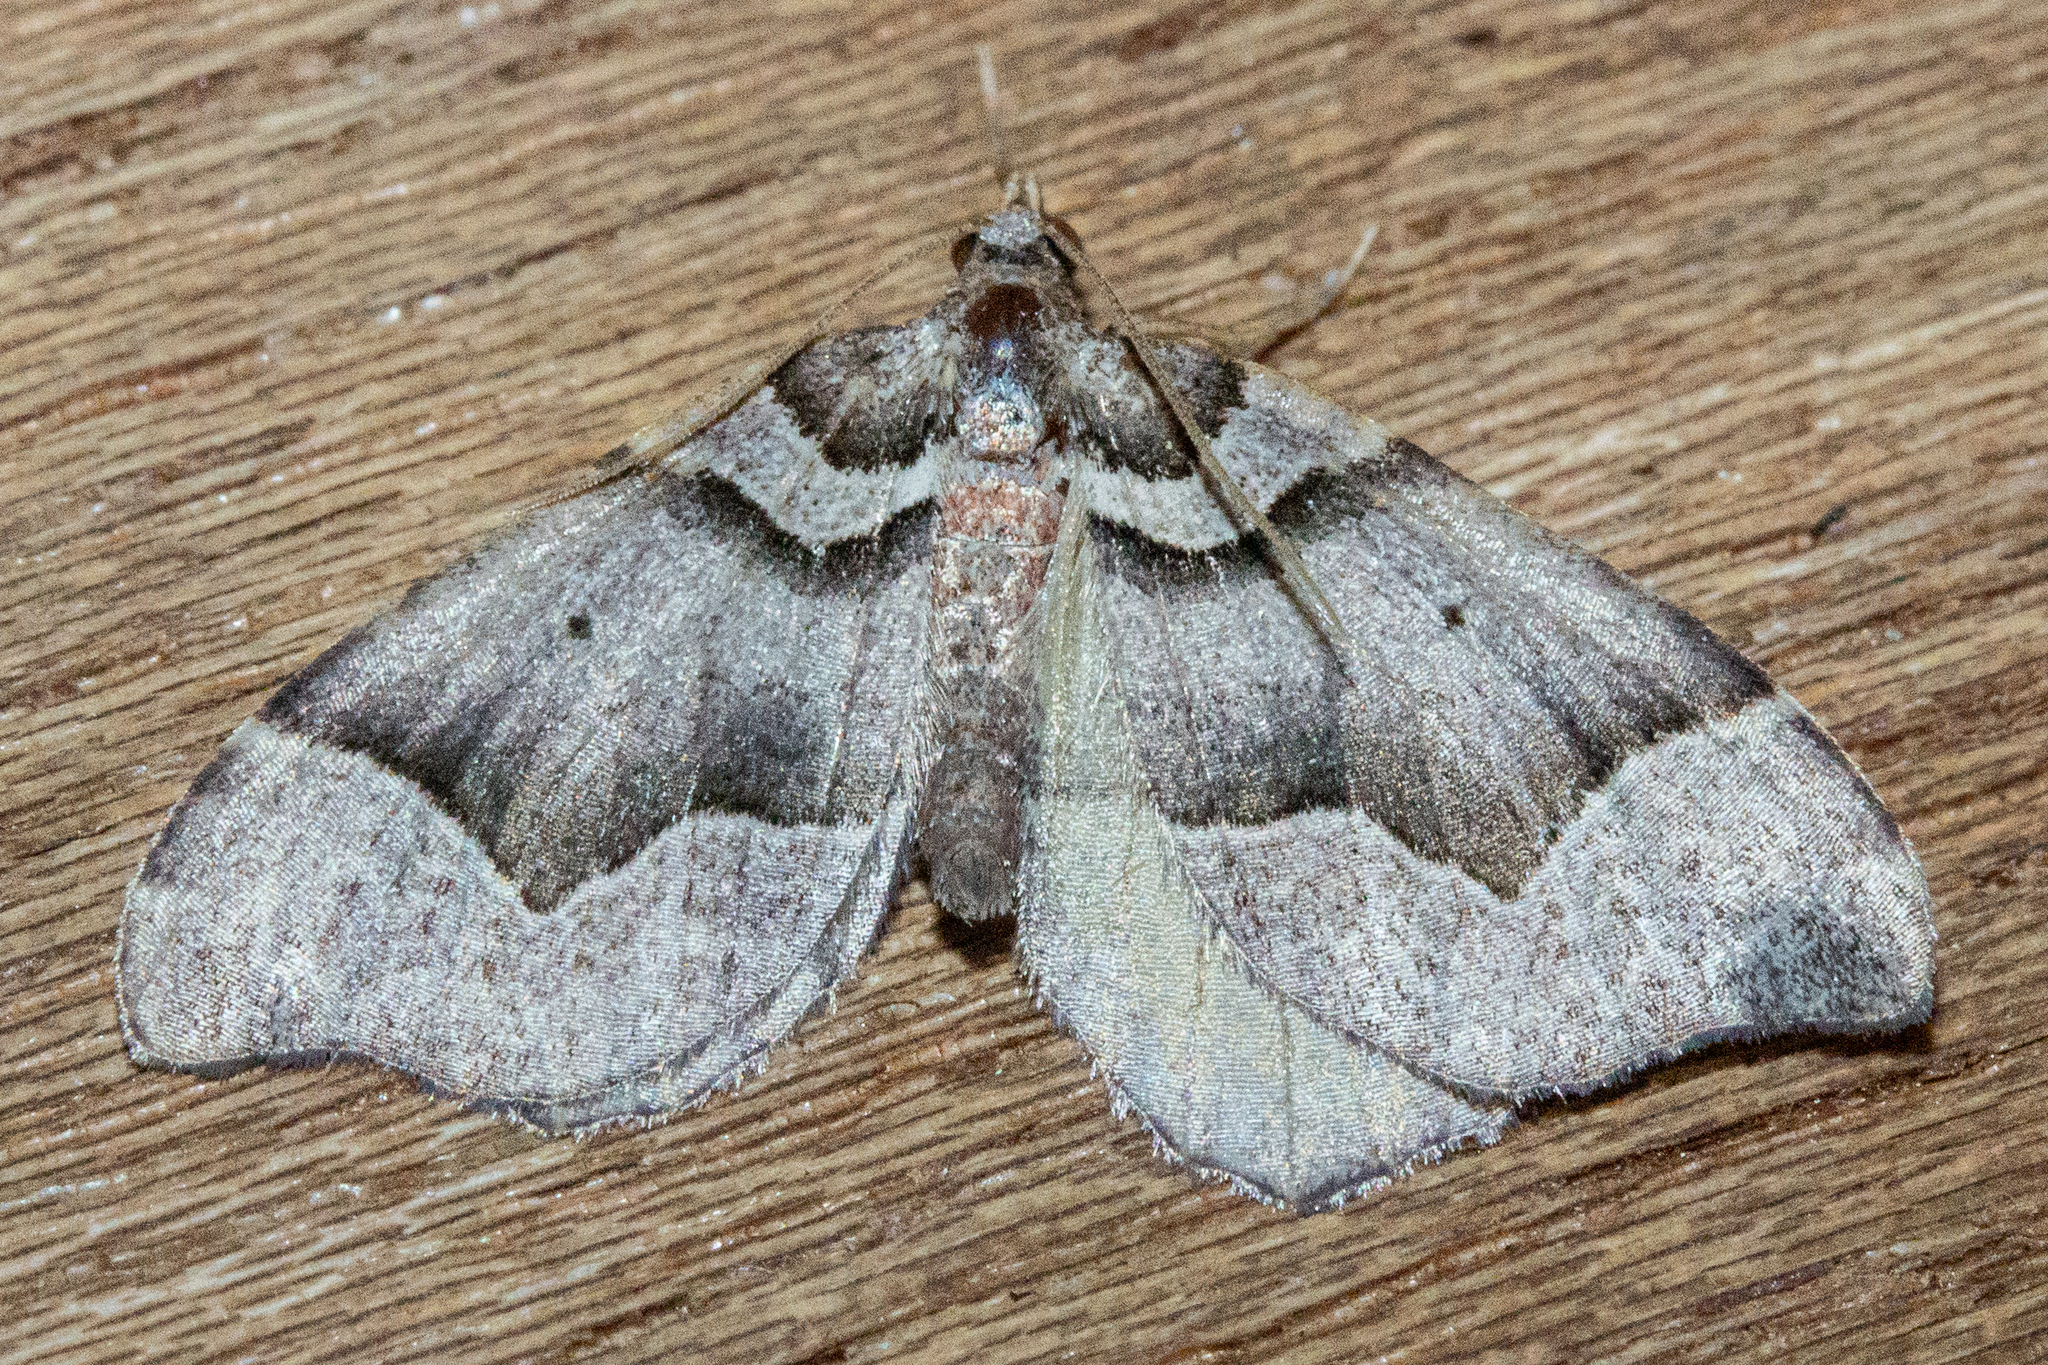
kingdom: Animalia
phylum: Arthropoda
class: Insecta
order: Lepidoptera
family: Geometridae
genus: Helastia
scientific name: Helastia triphragma
